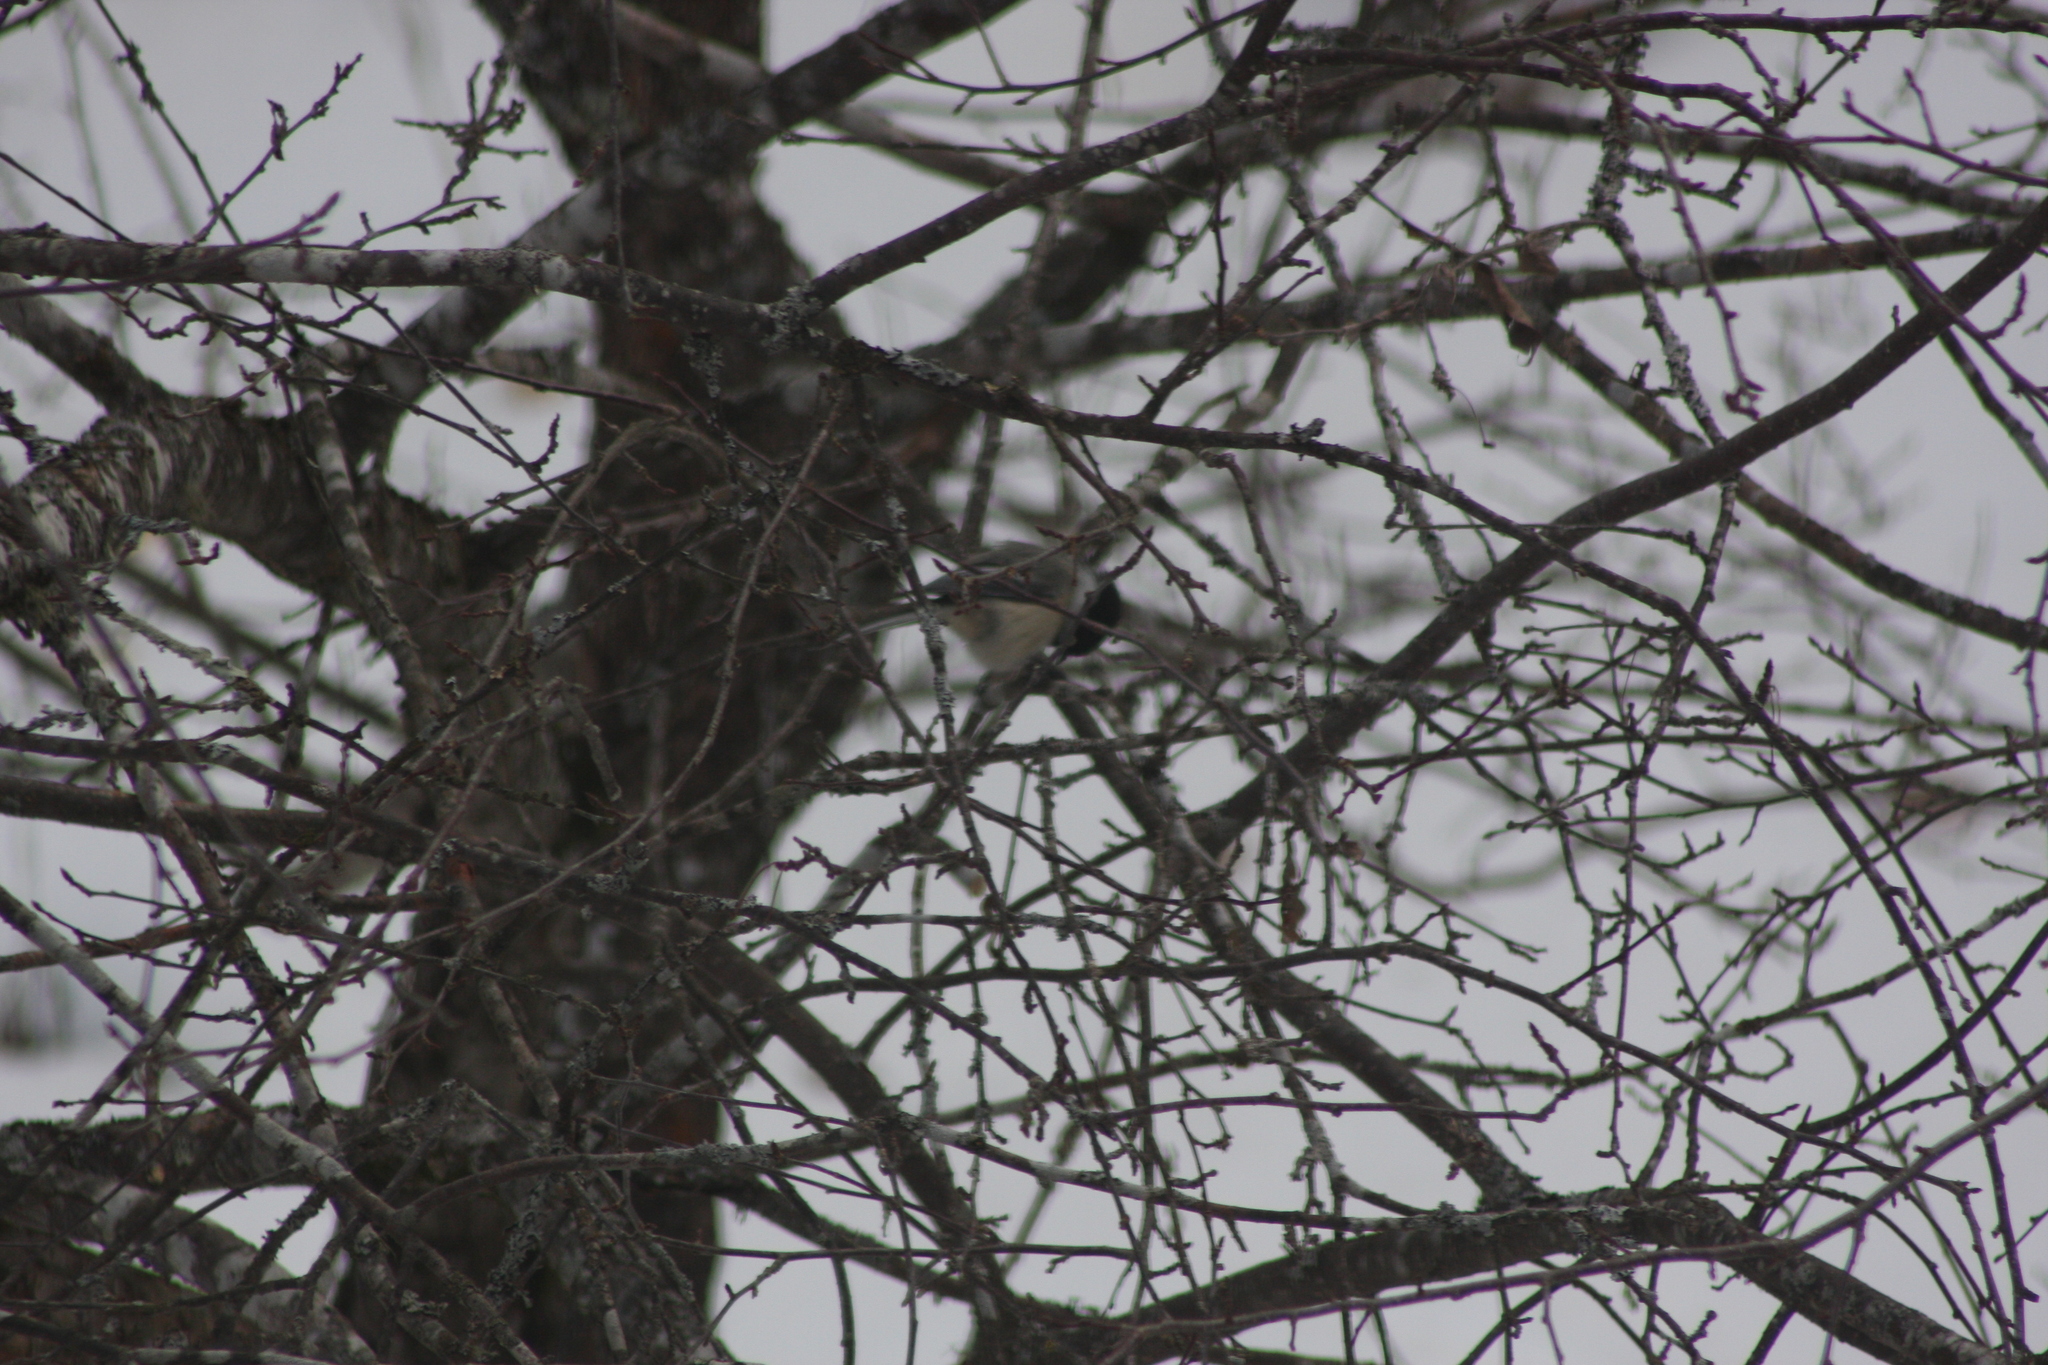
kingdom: Animalia
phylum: Chordata
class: Aves
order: Passeriformes
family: Paridae
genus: Poecile
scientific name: Poecile atricapillus
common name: Black-capped chickadee
